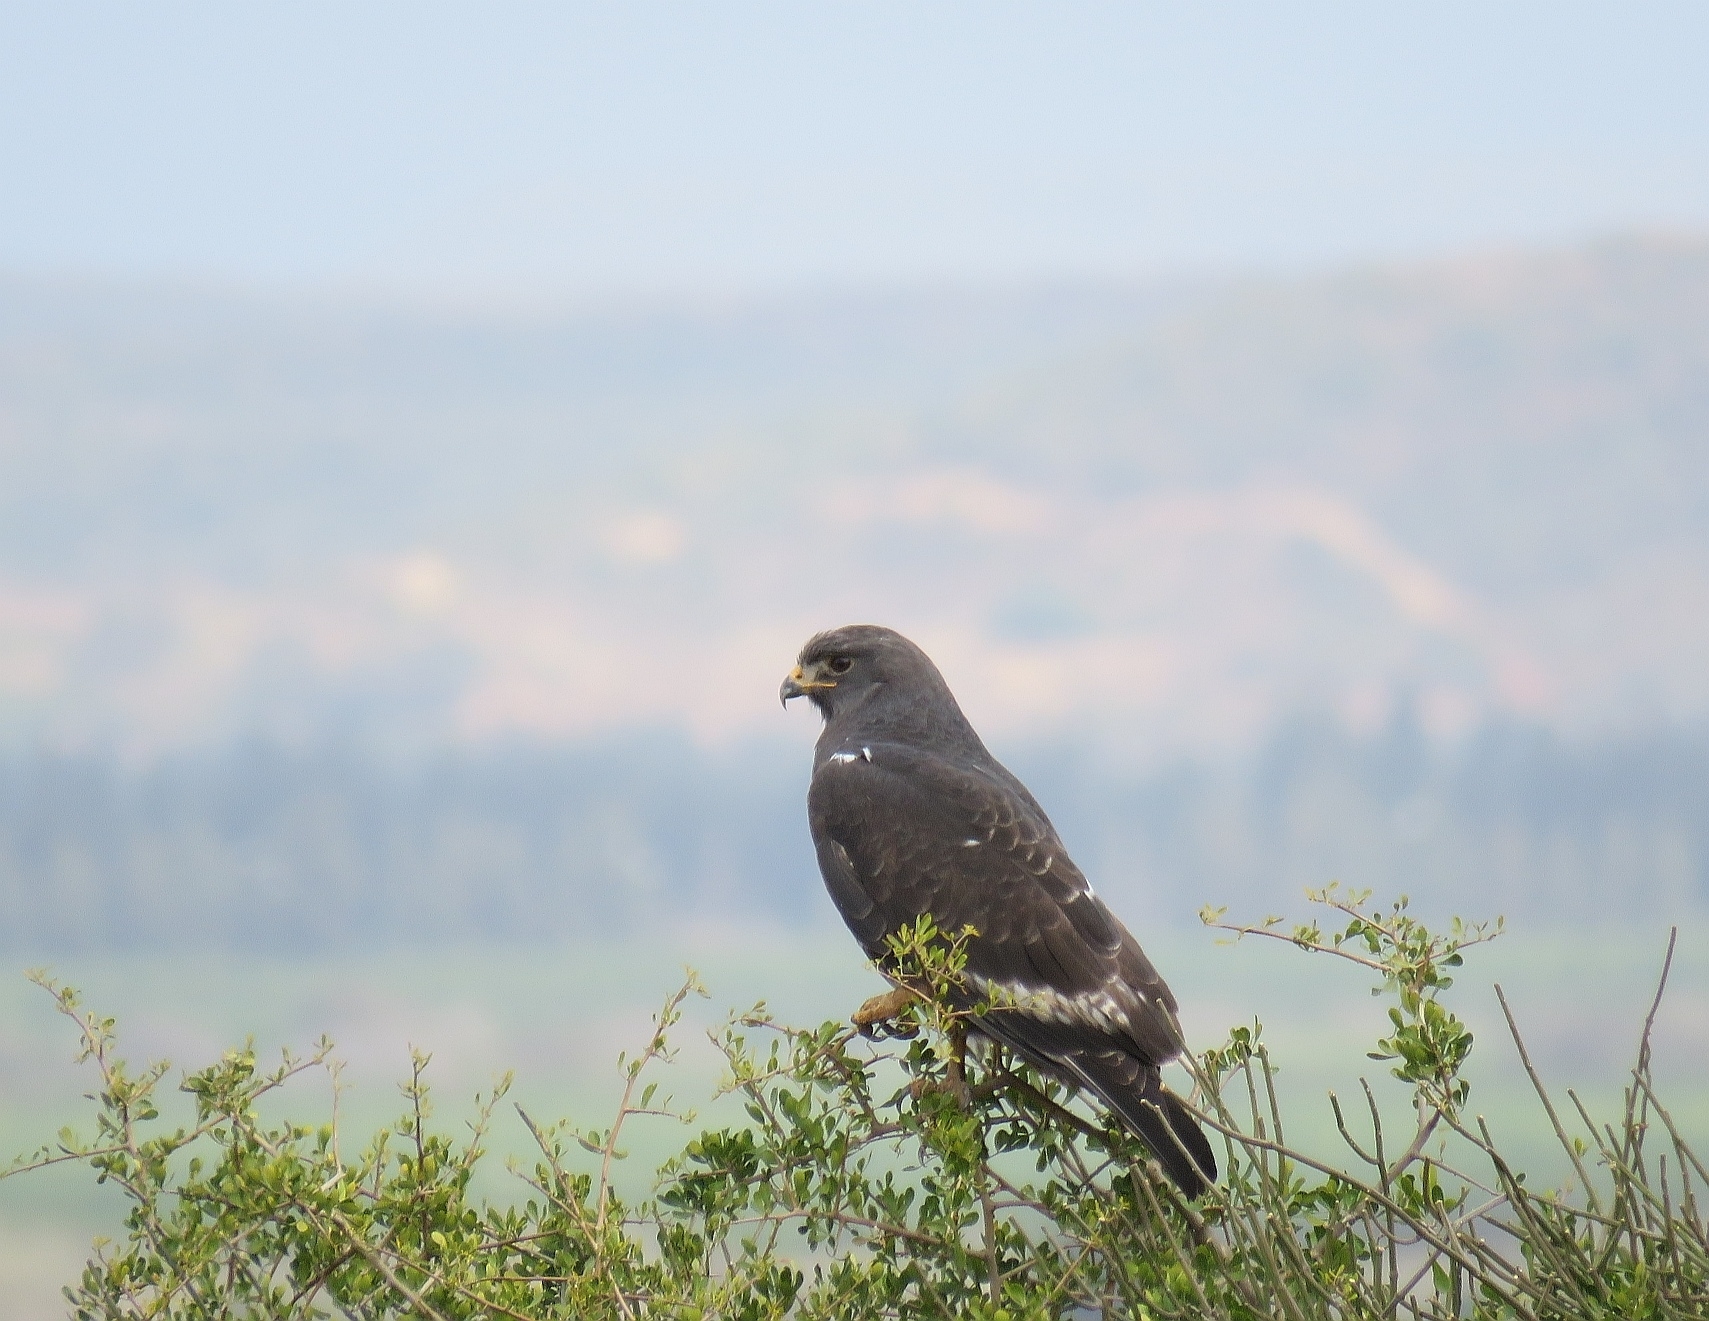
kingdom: Animalia
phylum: Chordata
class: Aves
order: Accipitriformes
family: Accipitridae
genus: Buteo
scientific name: Buteo rufofuscus
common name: Jackal buzzard
